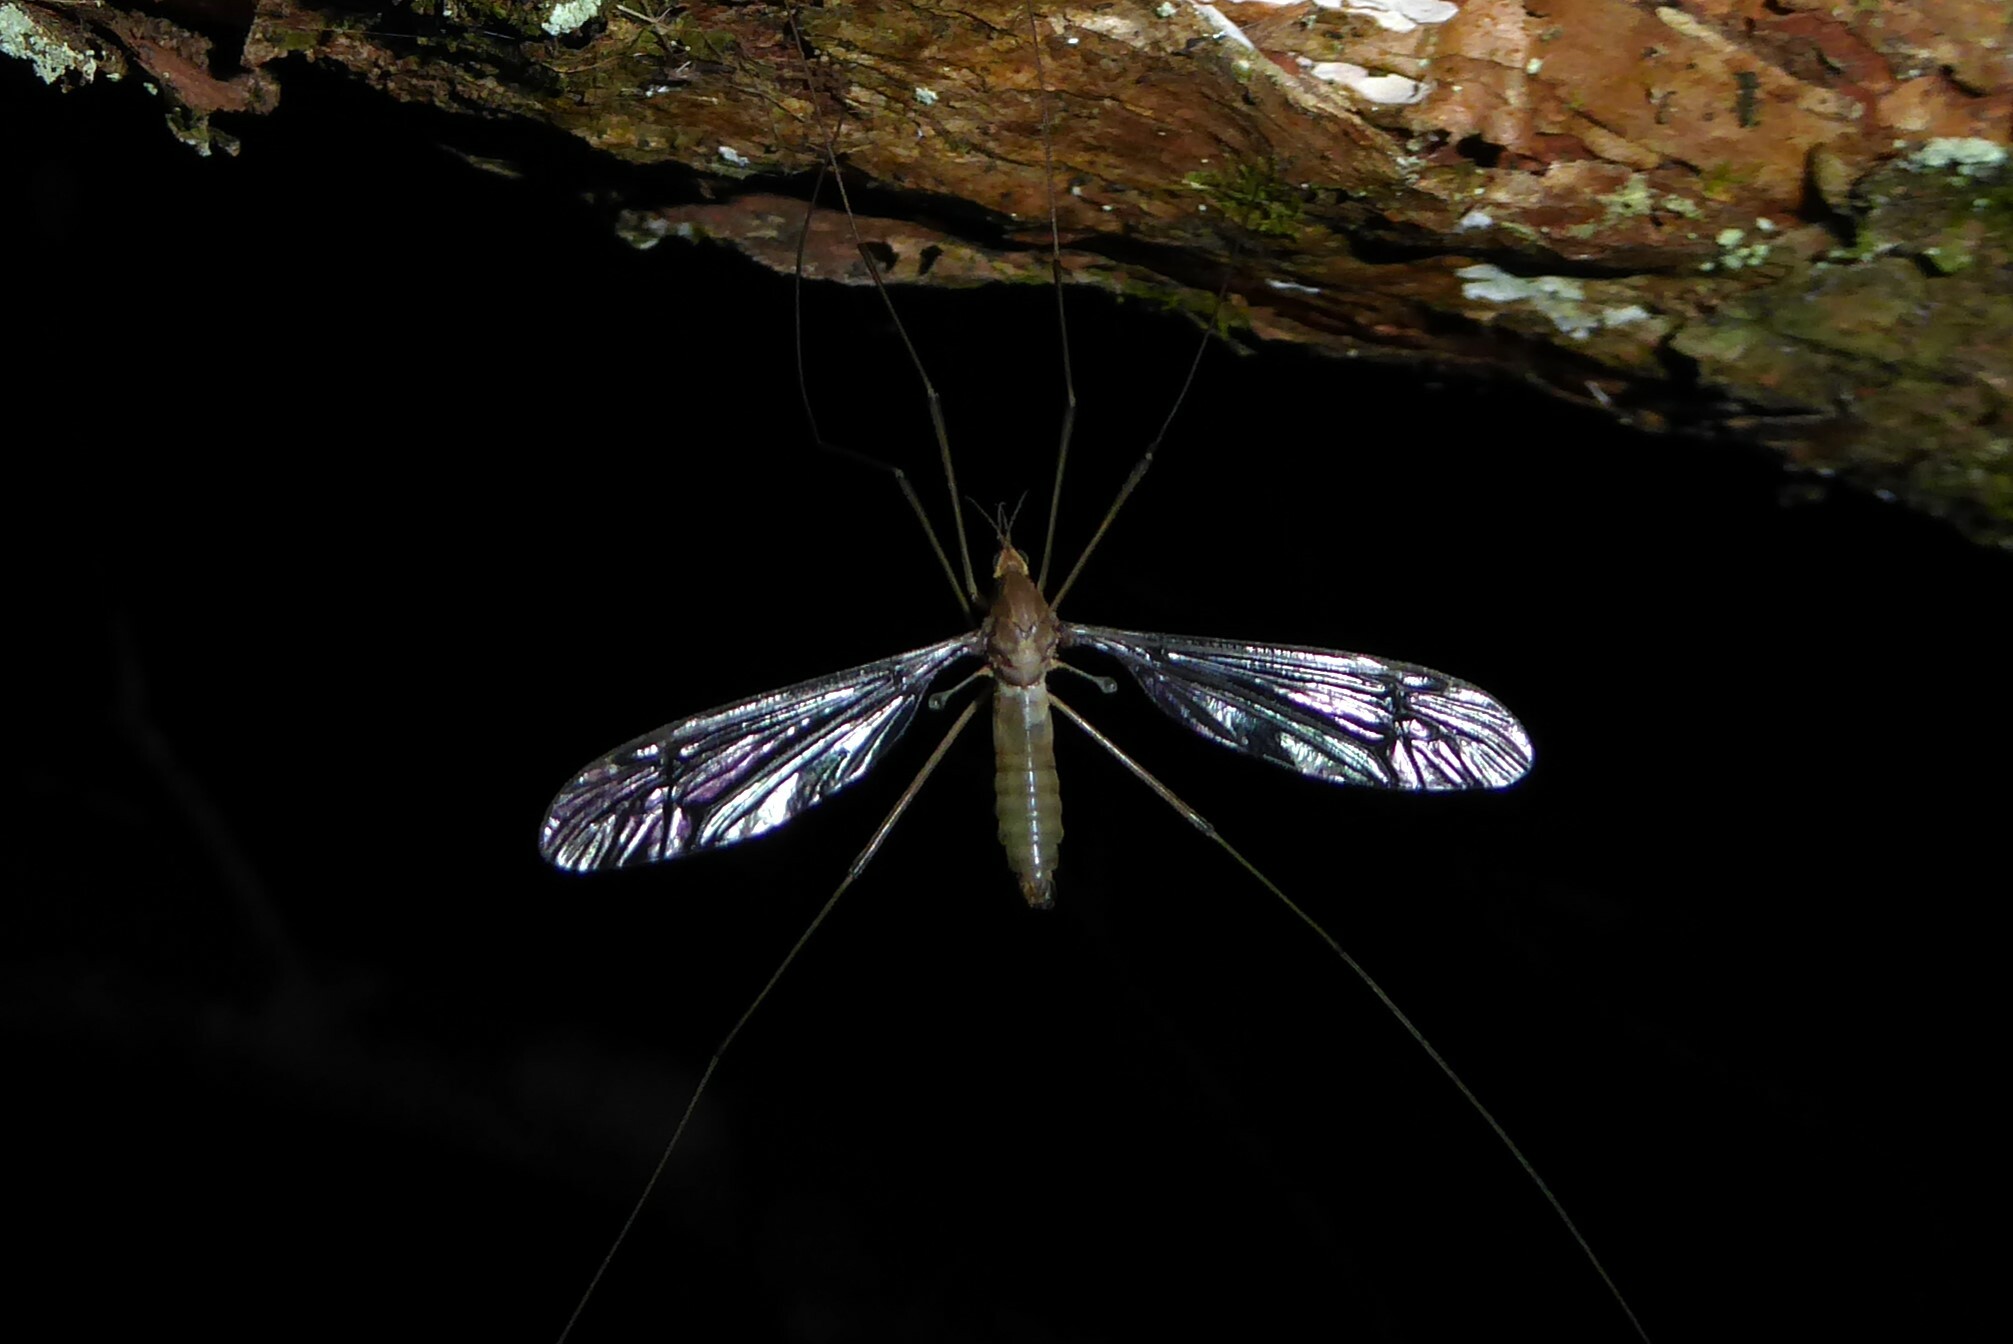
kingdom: Animalia
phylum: Arthropoda
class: Insecta
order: Diptera
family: Tipulidae
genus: Leptotarsus
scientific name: Leptotarsus zeylandiae
